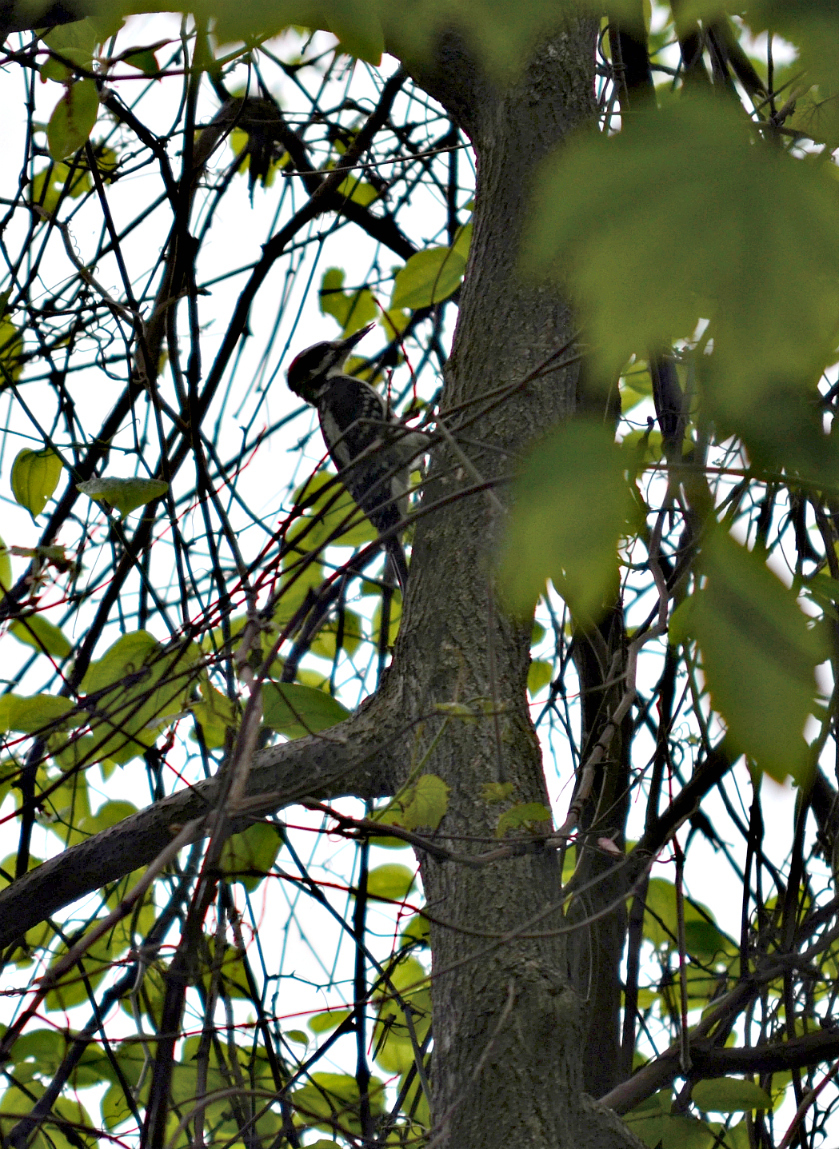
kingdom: Animalia
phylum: Chordata
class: Aves
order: Piciformes
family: Picidae
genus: Leuconotopicus
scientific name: Leuconotopicus villosus
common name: Hairy woodpecker
